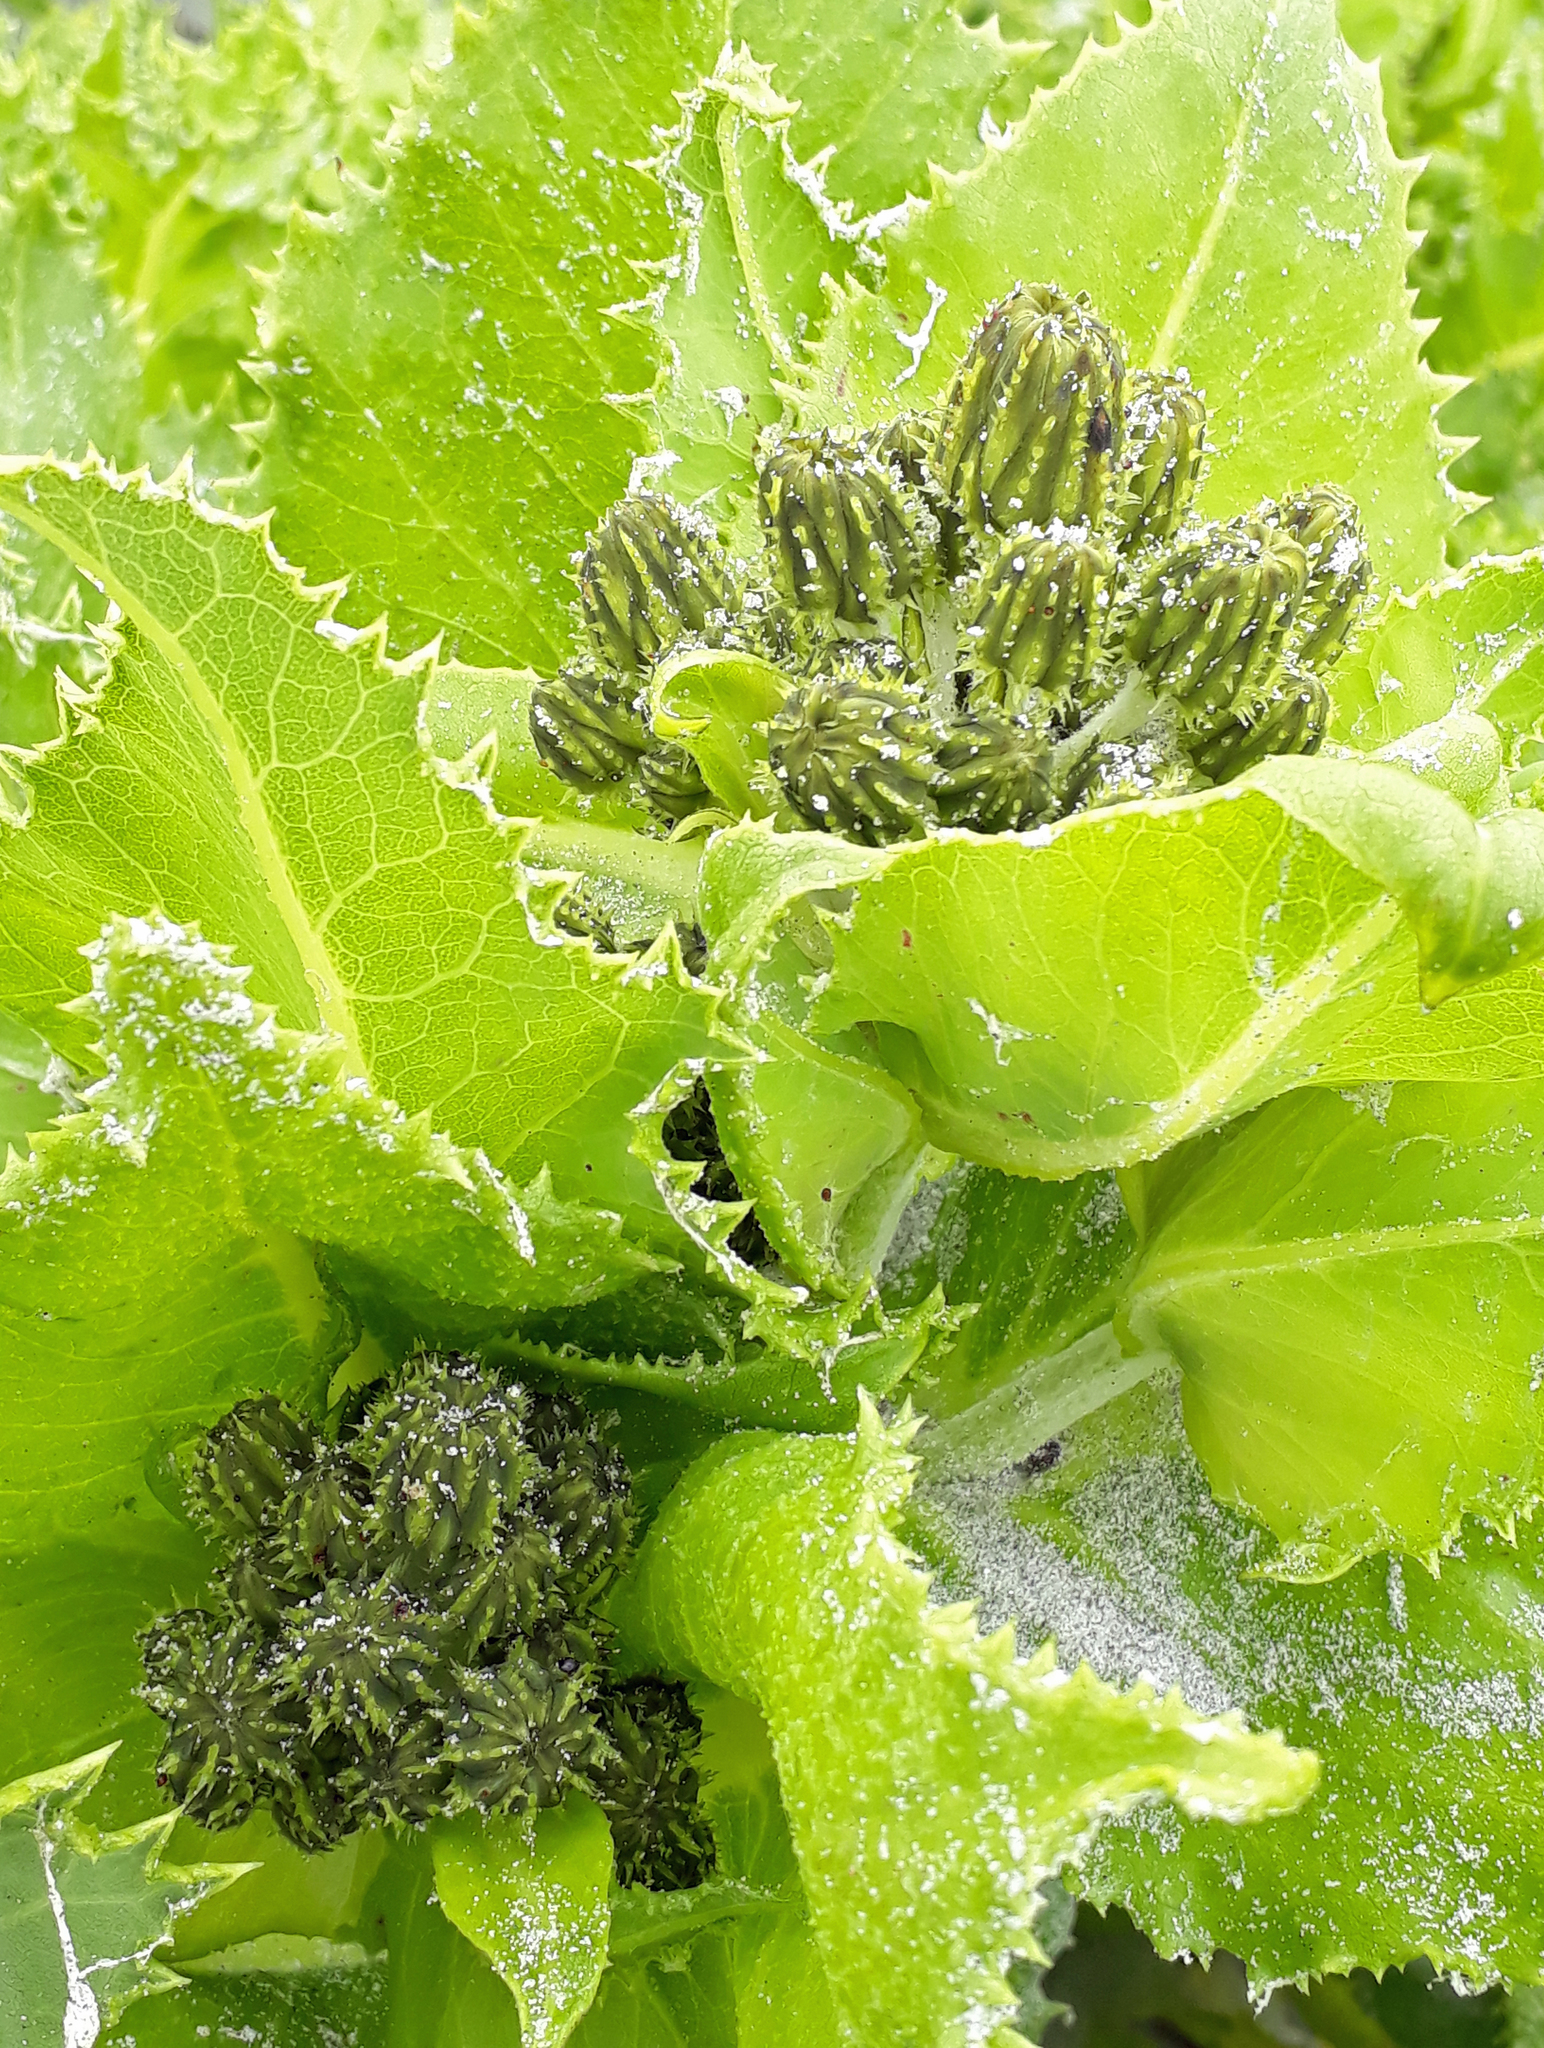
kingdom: Plantae
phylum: Tracheophyta
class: Magnoliopsida
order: Asterales
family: Asteraceae
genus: Sonchus
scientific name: Sonchus grandifolius
